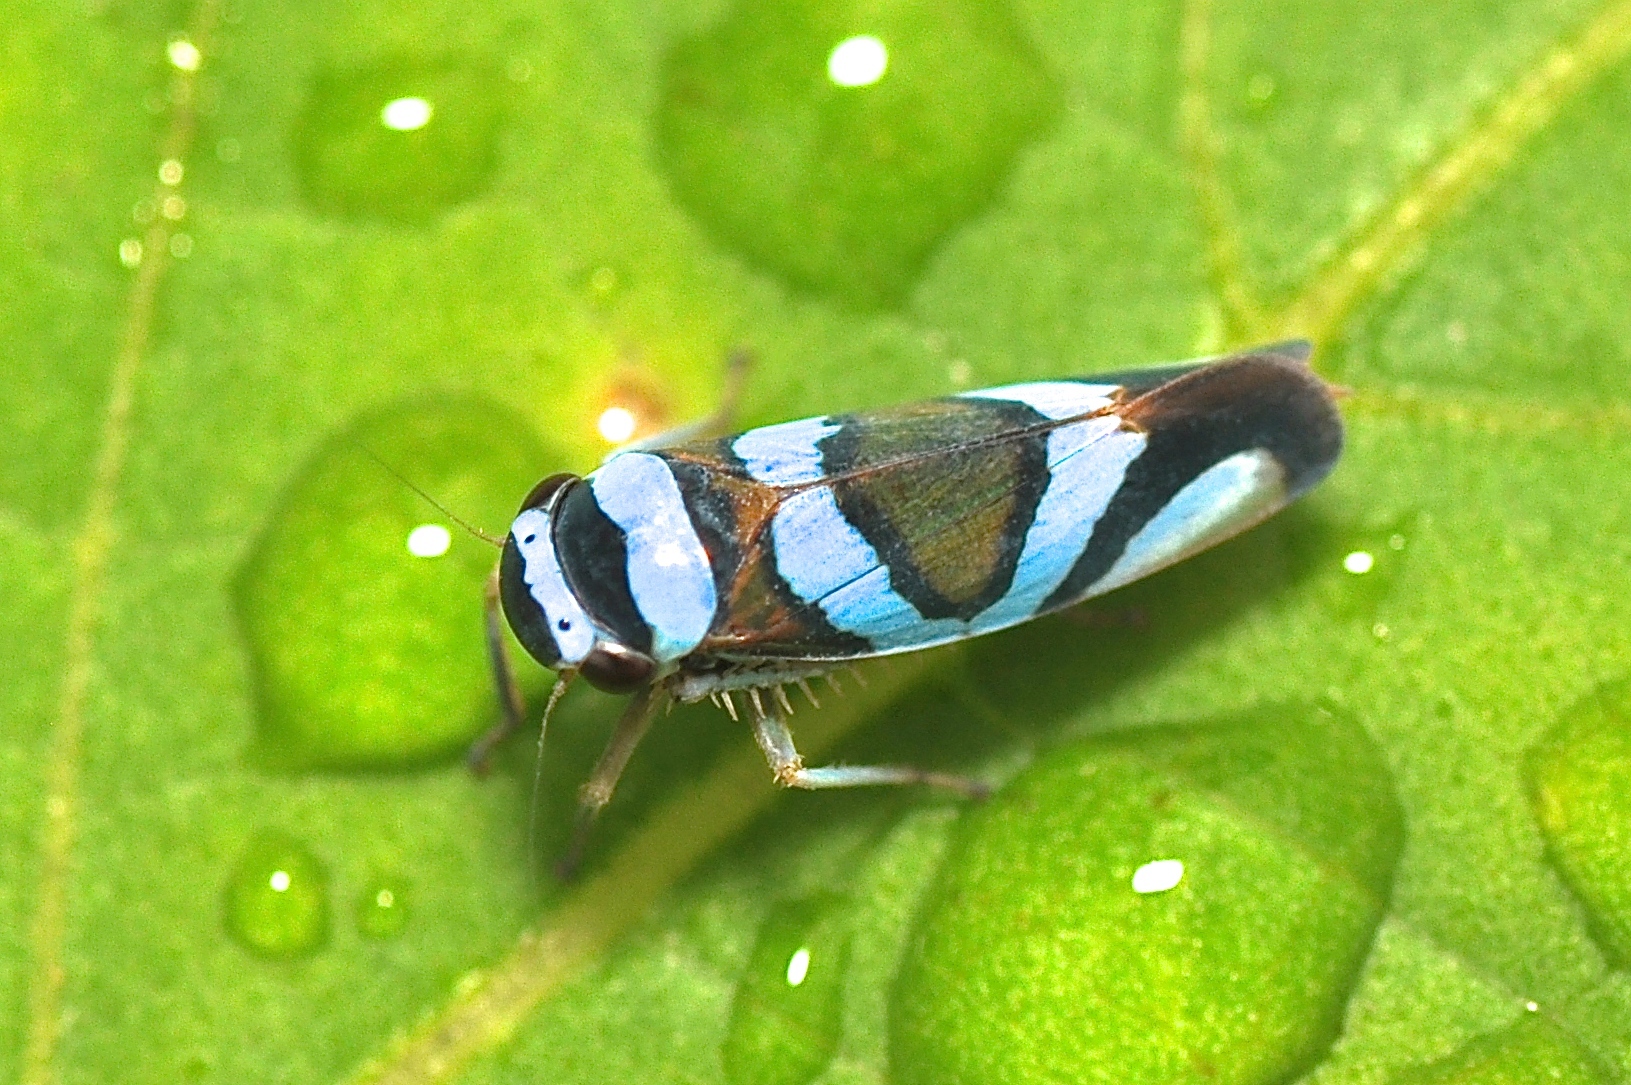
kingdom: Animalia
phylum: Arthropoda
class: Insecta
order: Hemiptera
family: Cicadellidae
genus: Macugonalia
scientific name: Macugonalia moesta
